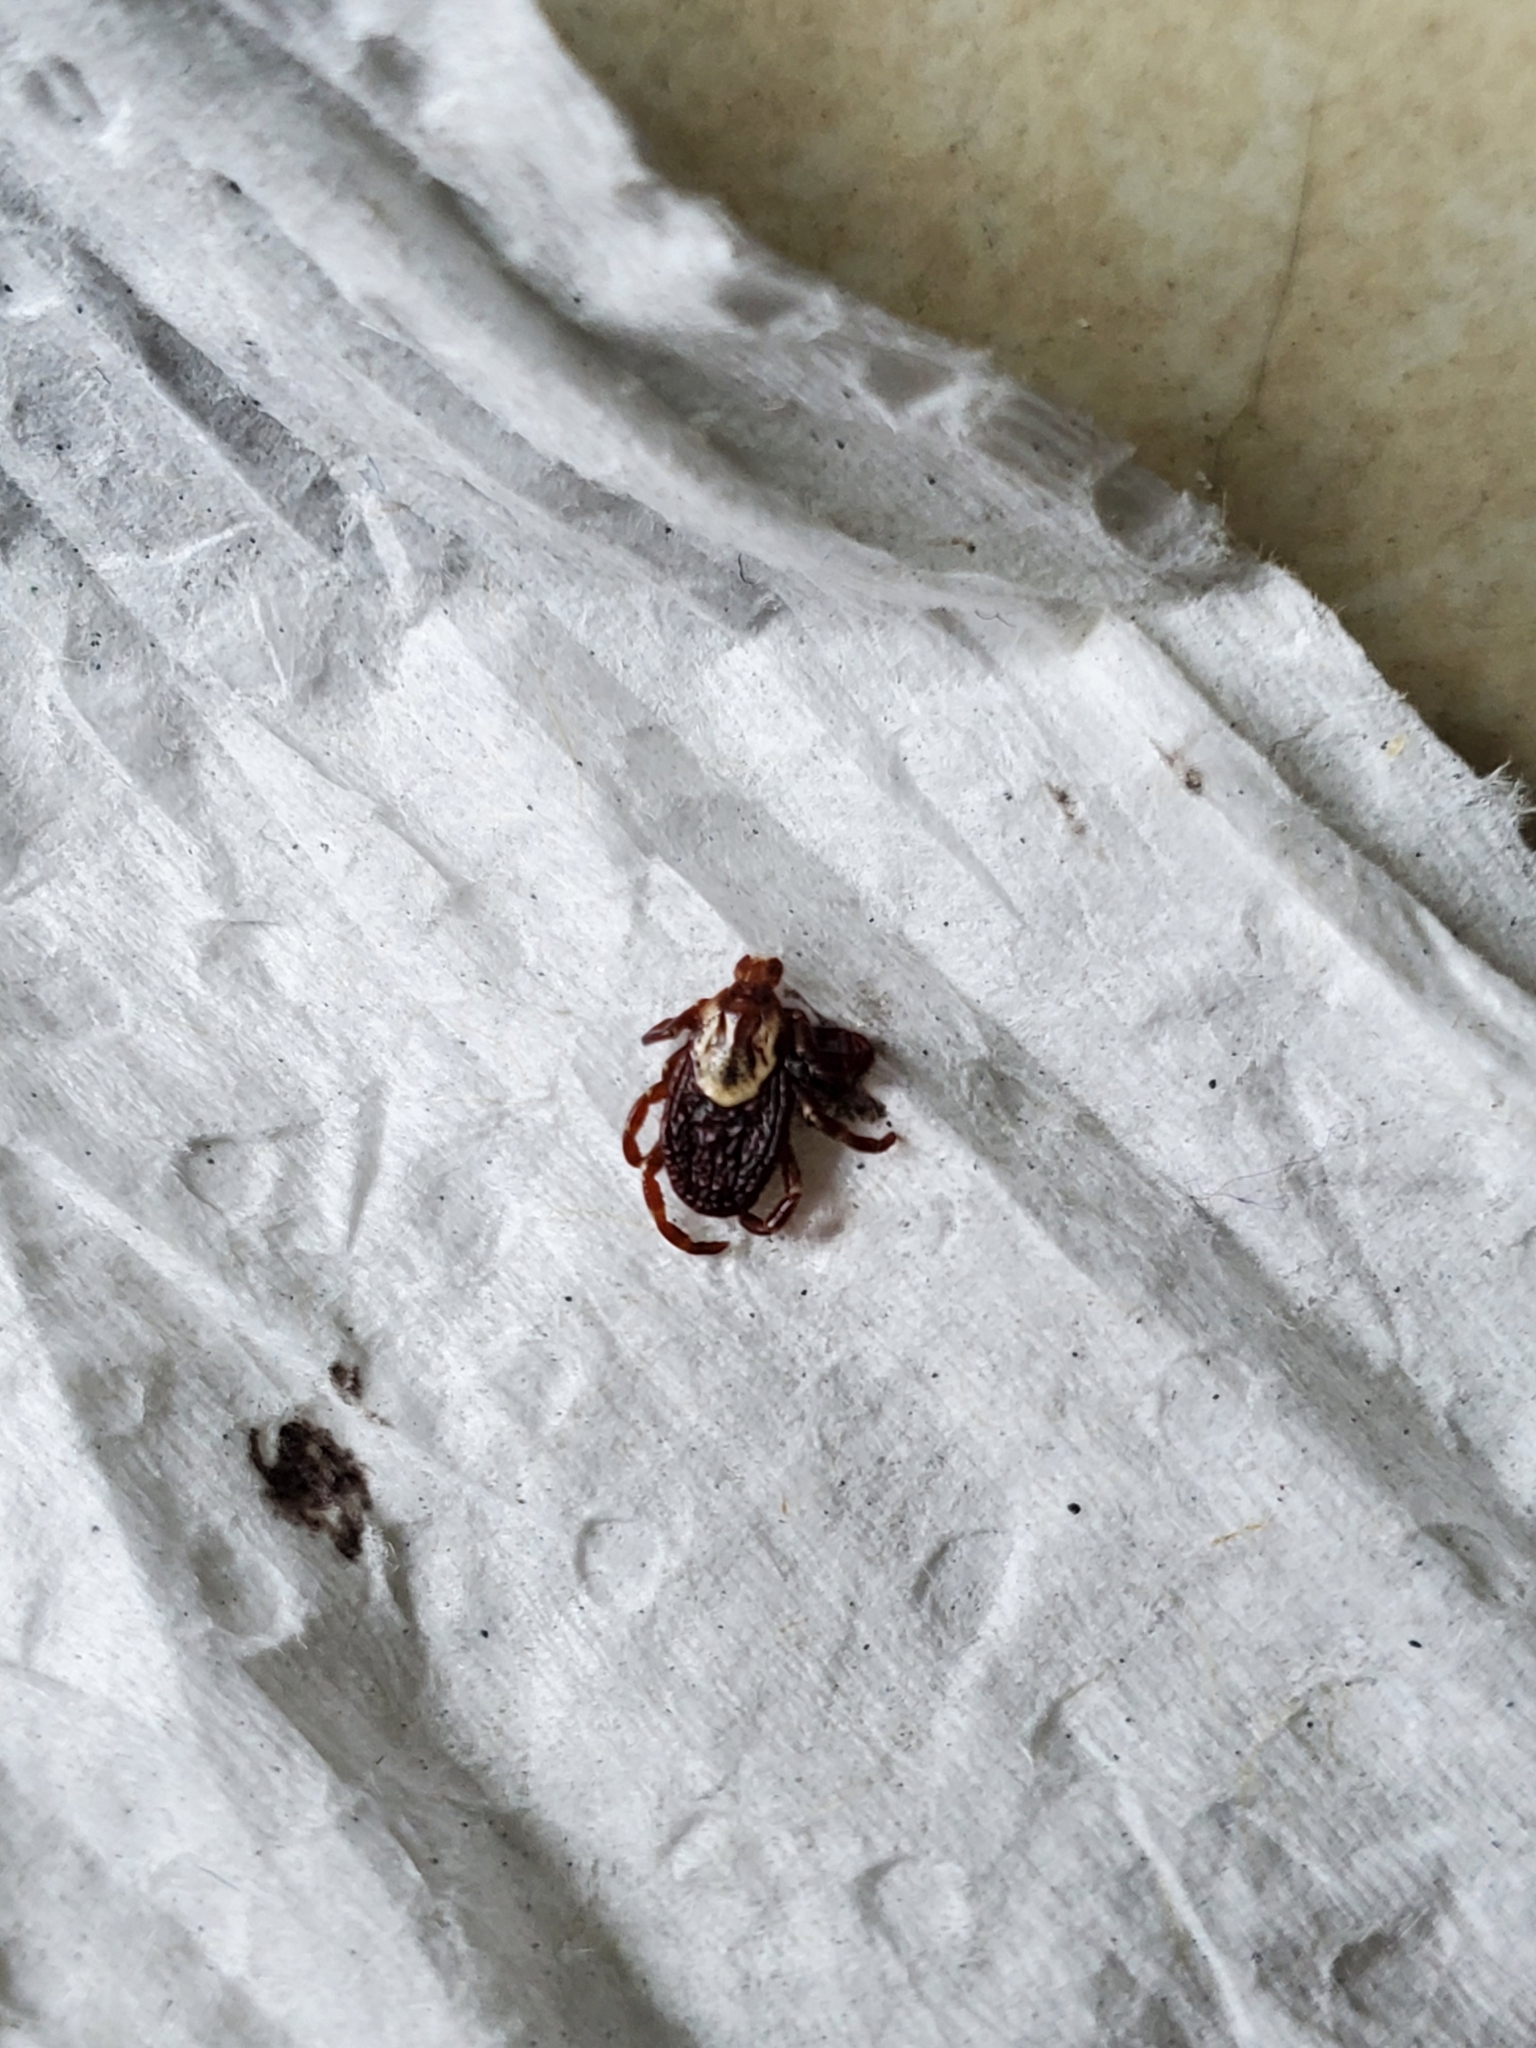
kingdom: Animalia
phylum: Arthropoda
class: Arachnida
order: Ixodida
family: Ixodidae
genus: Dermacentor
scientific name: Dermacentor variabilis
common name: American dog tick
